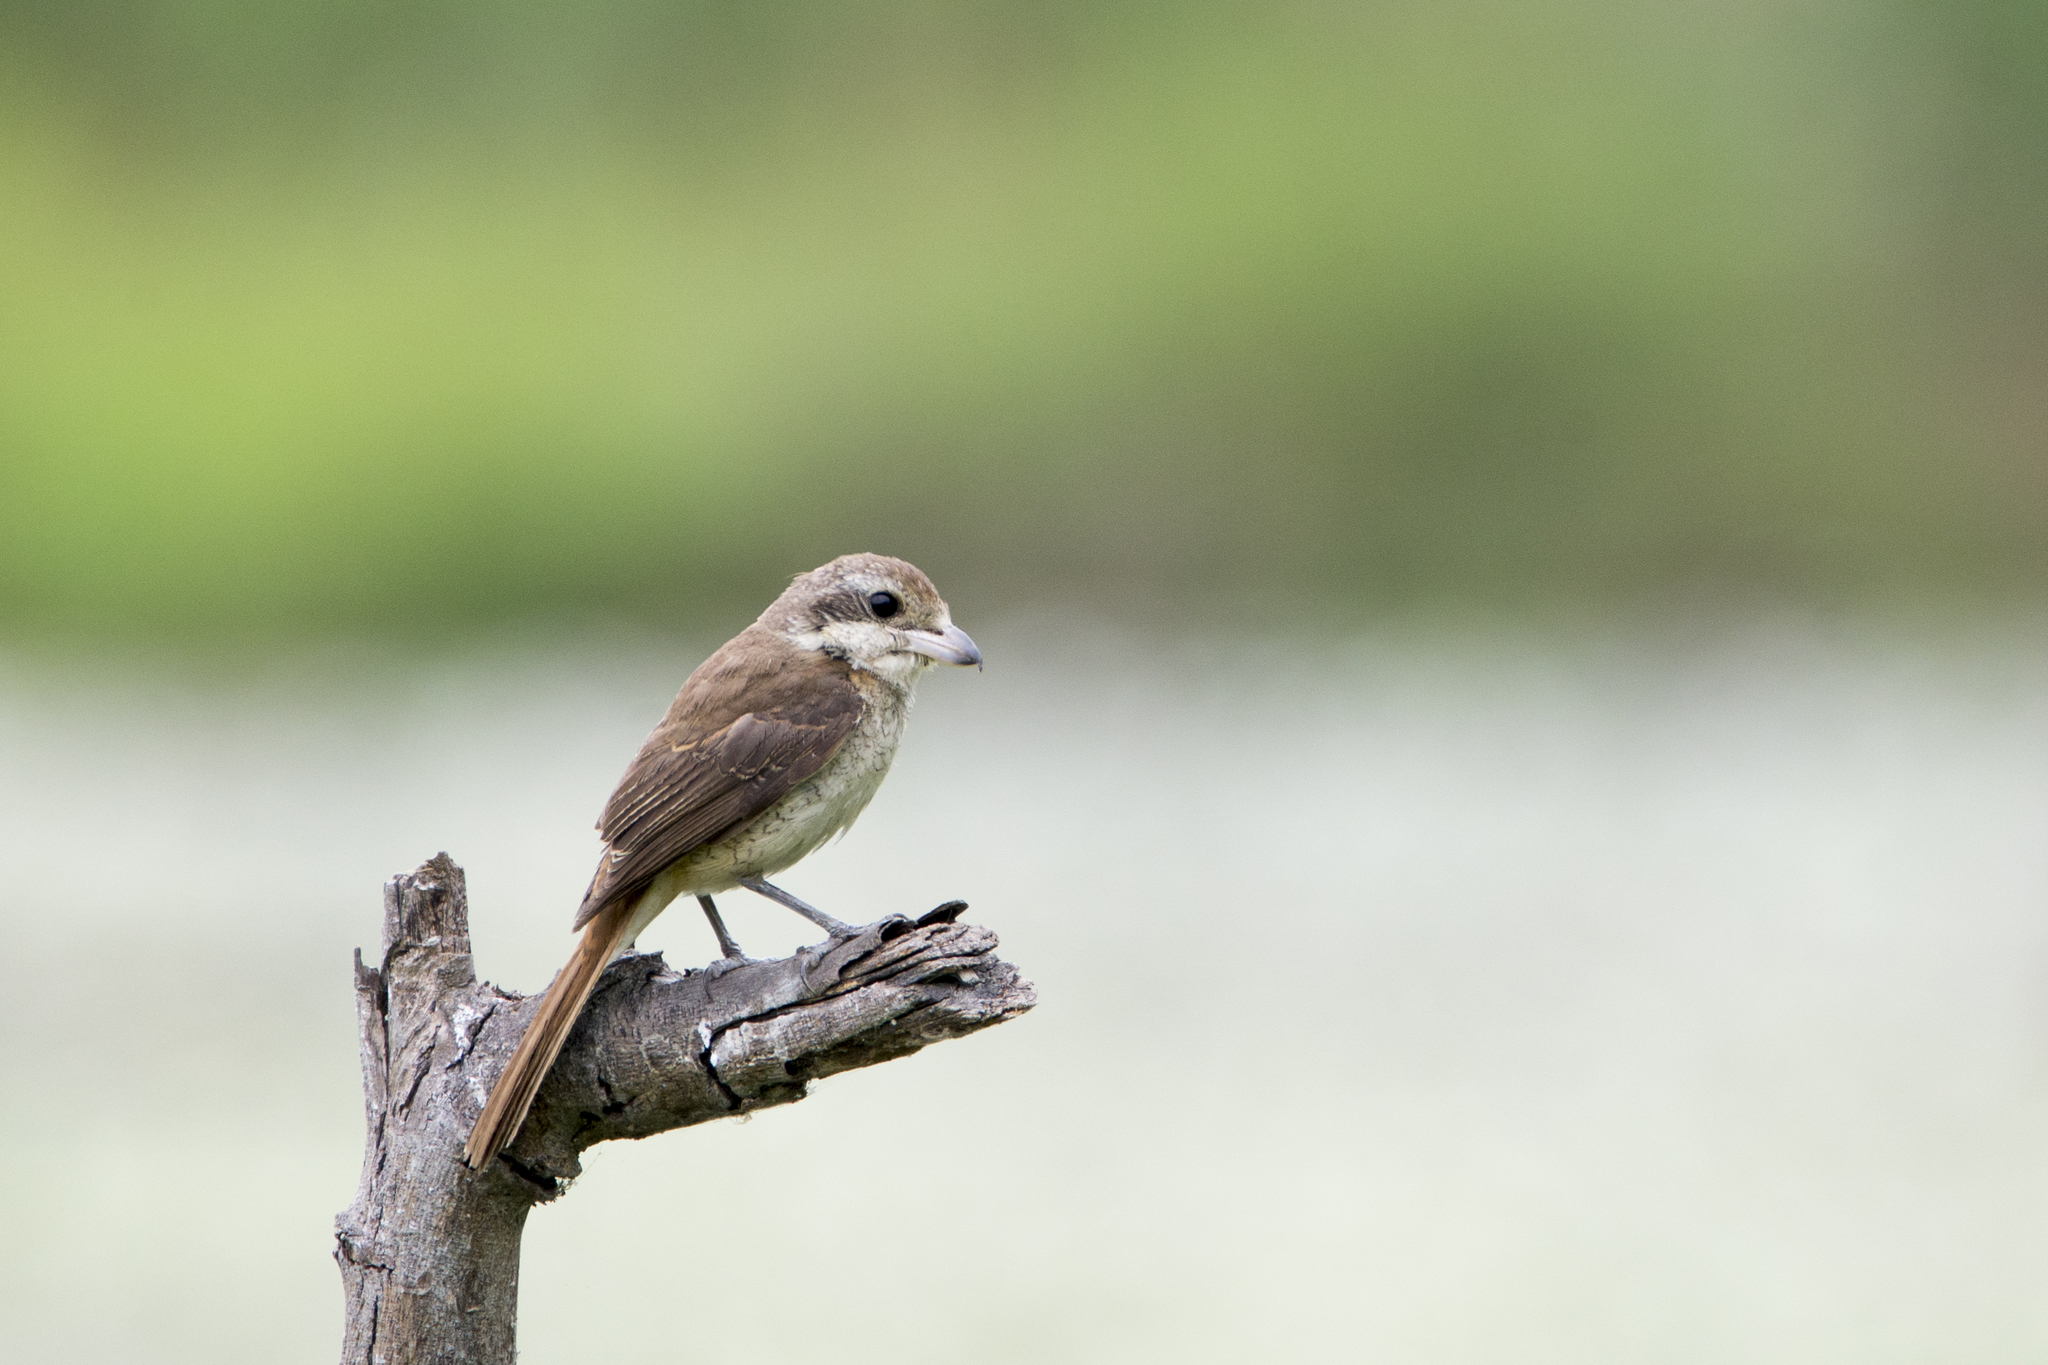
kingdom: Animalia
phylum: Chordata
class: Aves
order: Passeriformes
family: Laniidae
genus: Lanius
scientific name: Lanius cristatus
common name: Brown shrike
